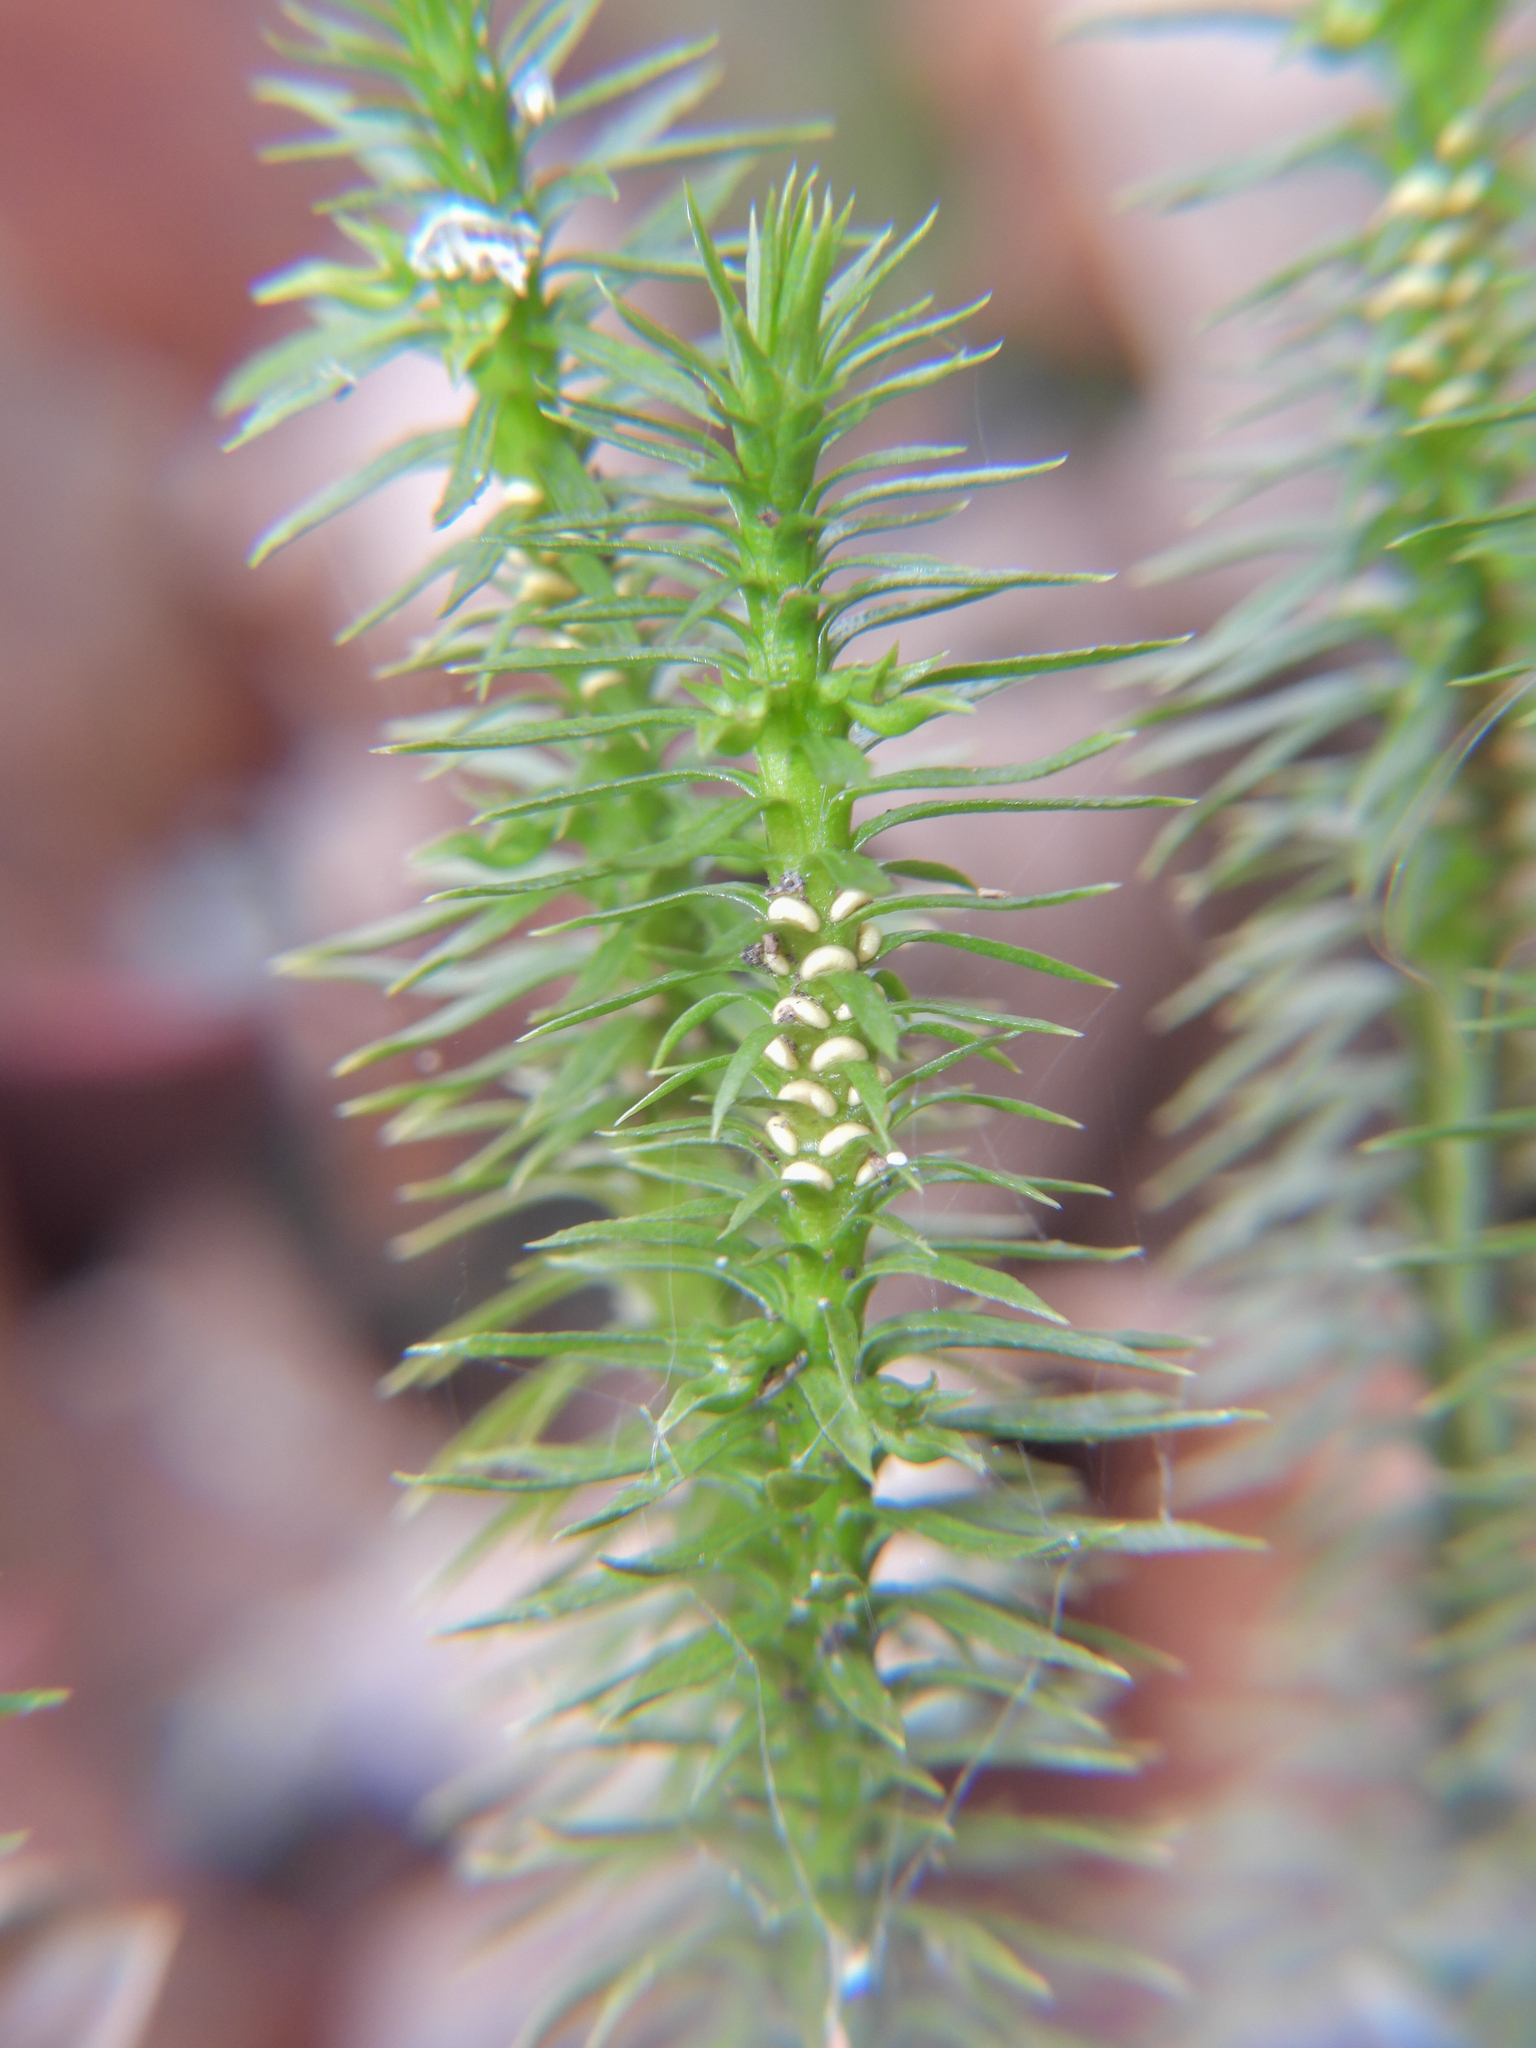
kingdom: Plantae
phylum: Tracheophyta
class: Lycopodiopsida
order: Lycopodiales
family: Lycopodiaceae
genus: Huperzia
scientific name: Huperzia lucidula
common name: Shining clubmoss
